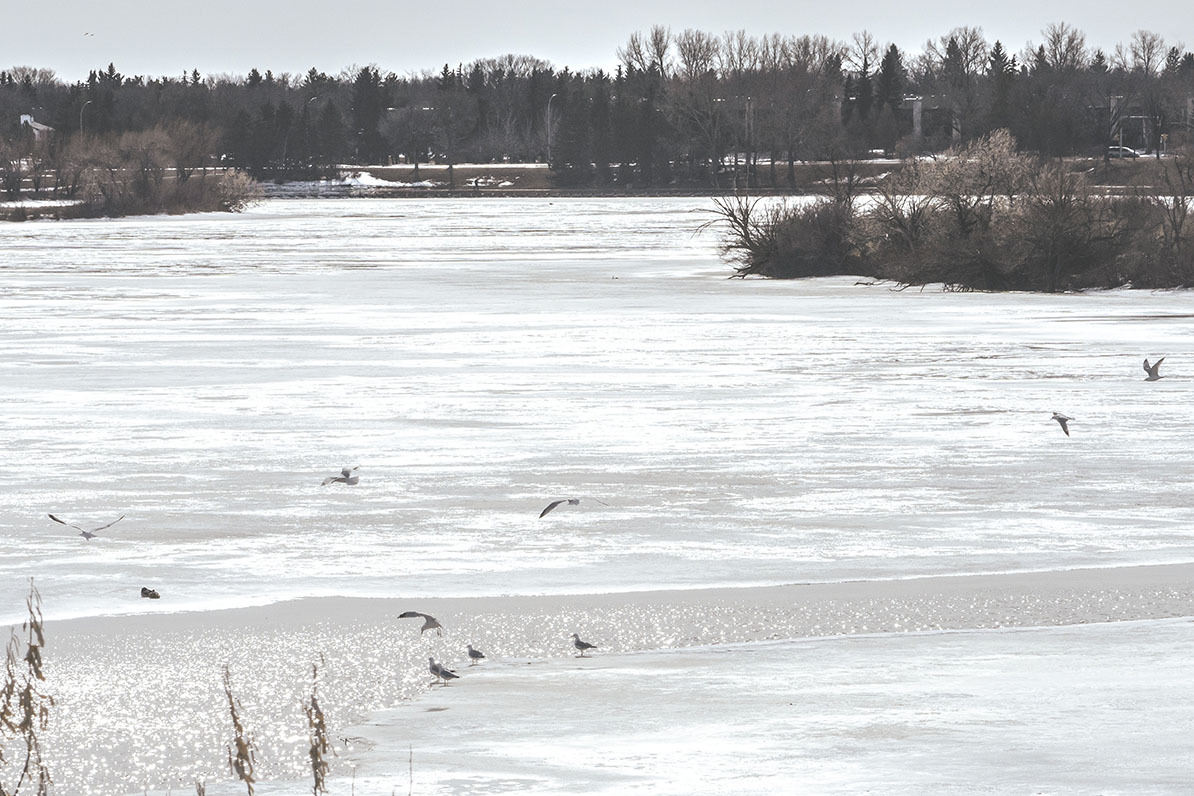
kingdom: Animalia
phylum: Chordata
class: Aves
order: Charadriiformes
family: Laridae
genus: Larus
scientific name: Larus delawarensis
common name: Ring-billed gull
